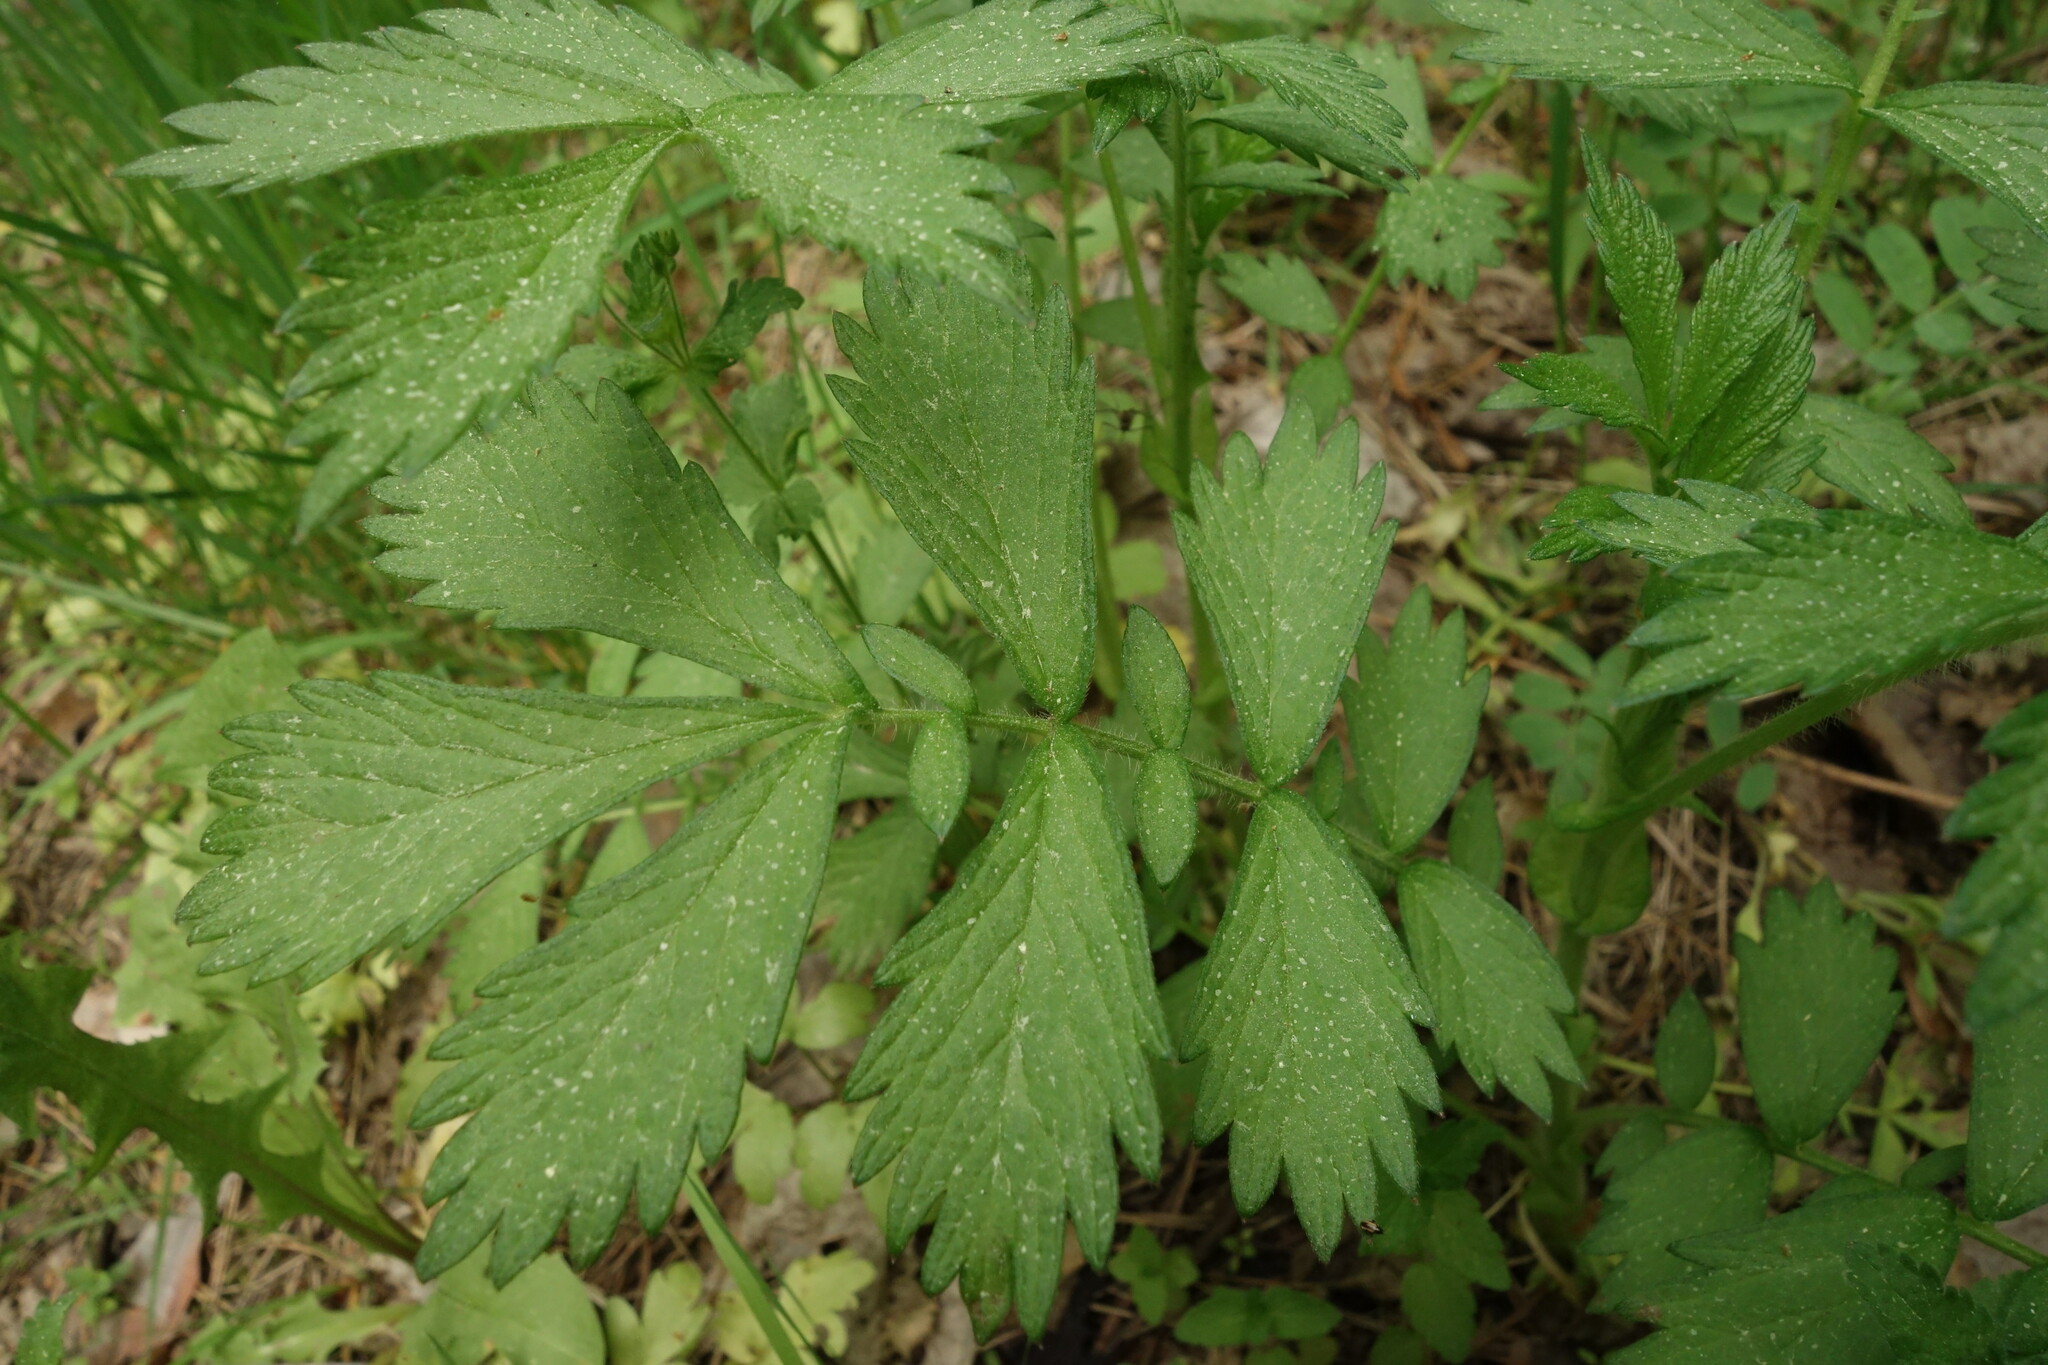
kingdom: Plantae
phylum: Tracheophyta
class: Magnoliopsida
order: Rosales
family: Rosaceae
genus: Agrimonia
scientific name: Agrimonia pilosa
